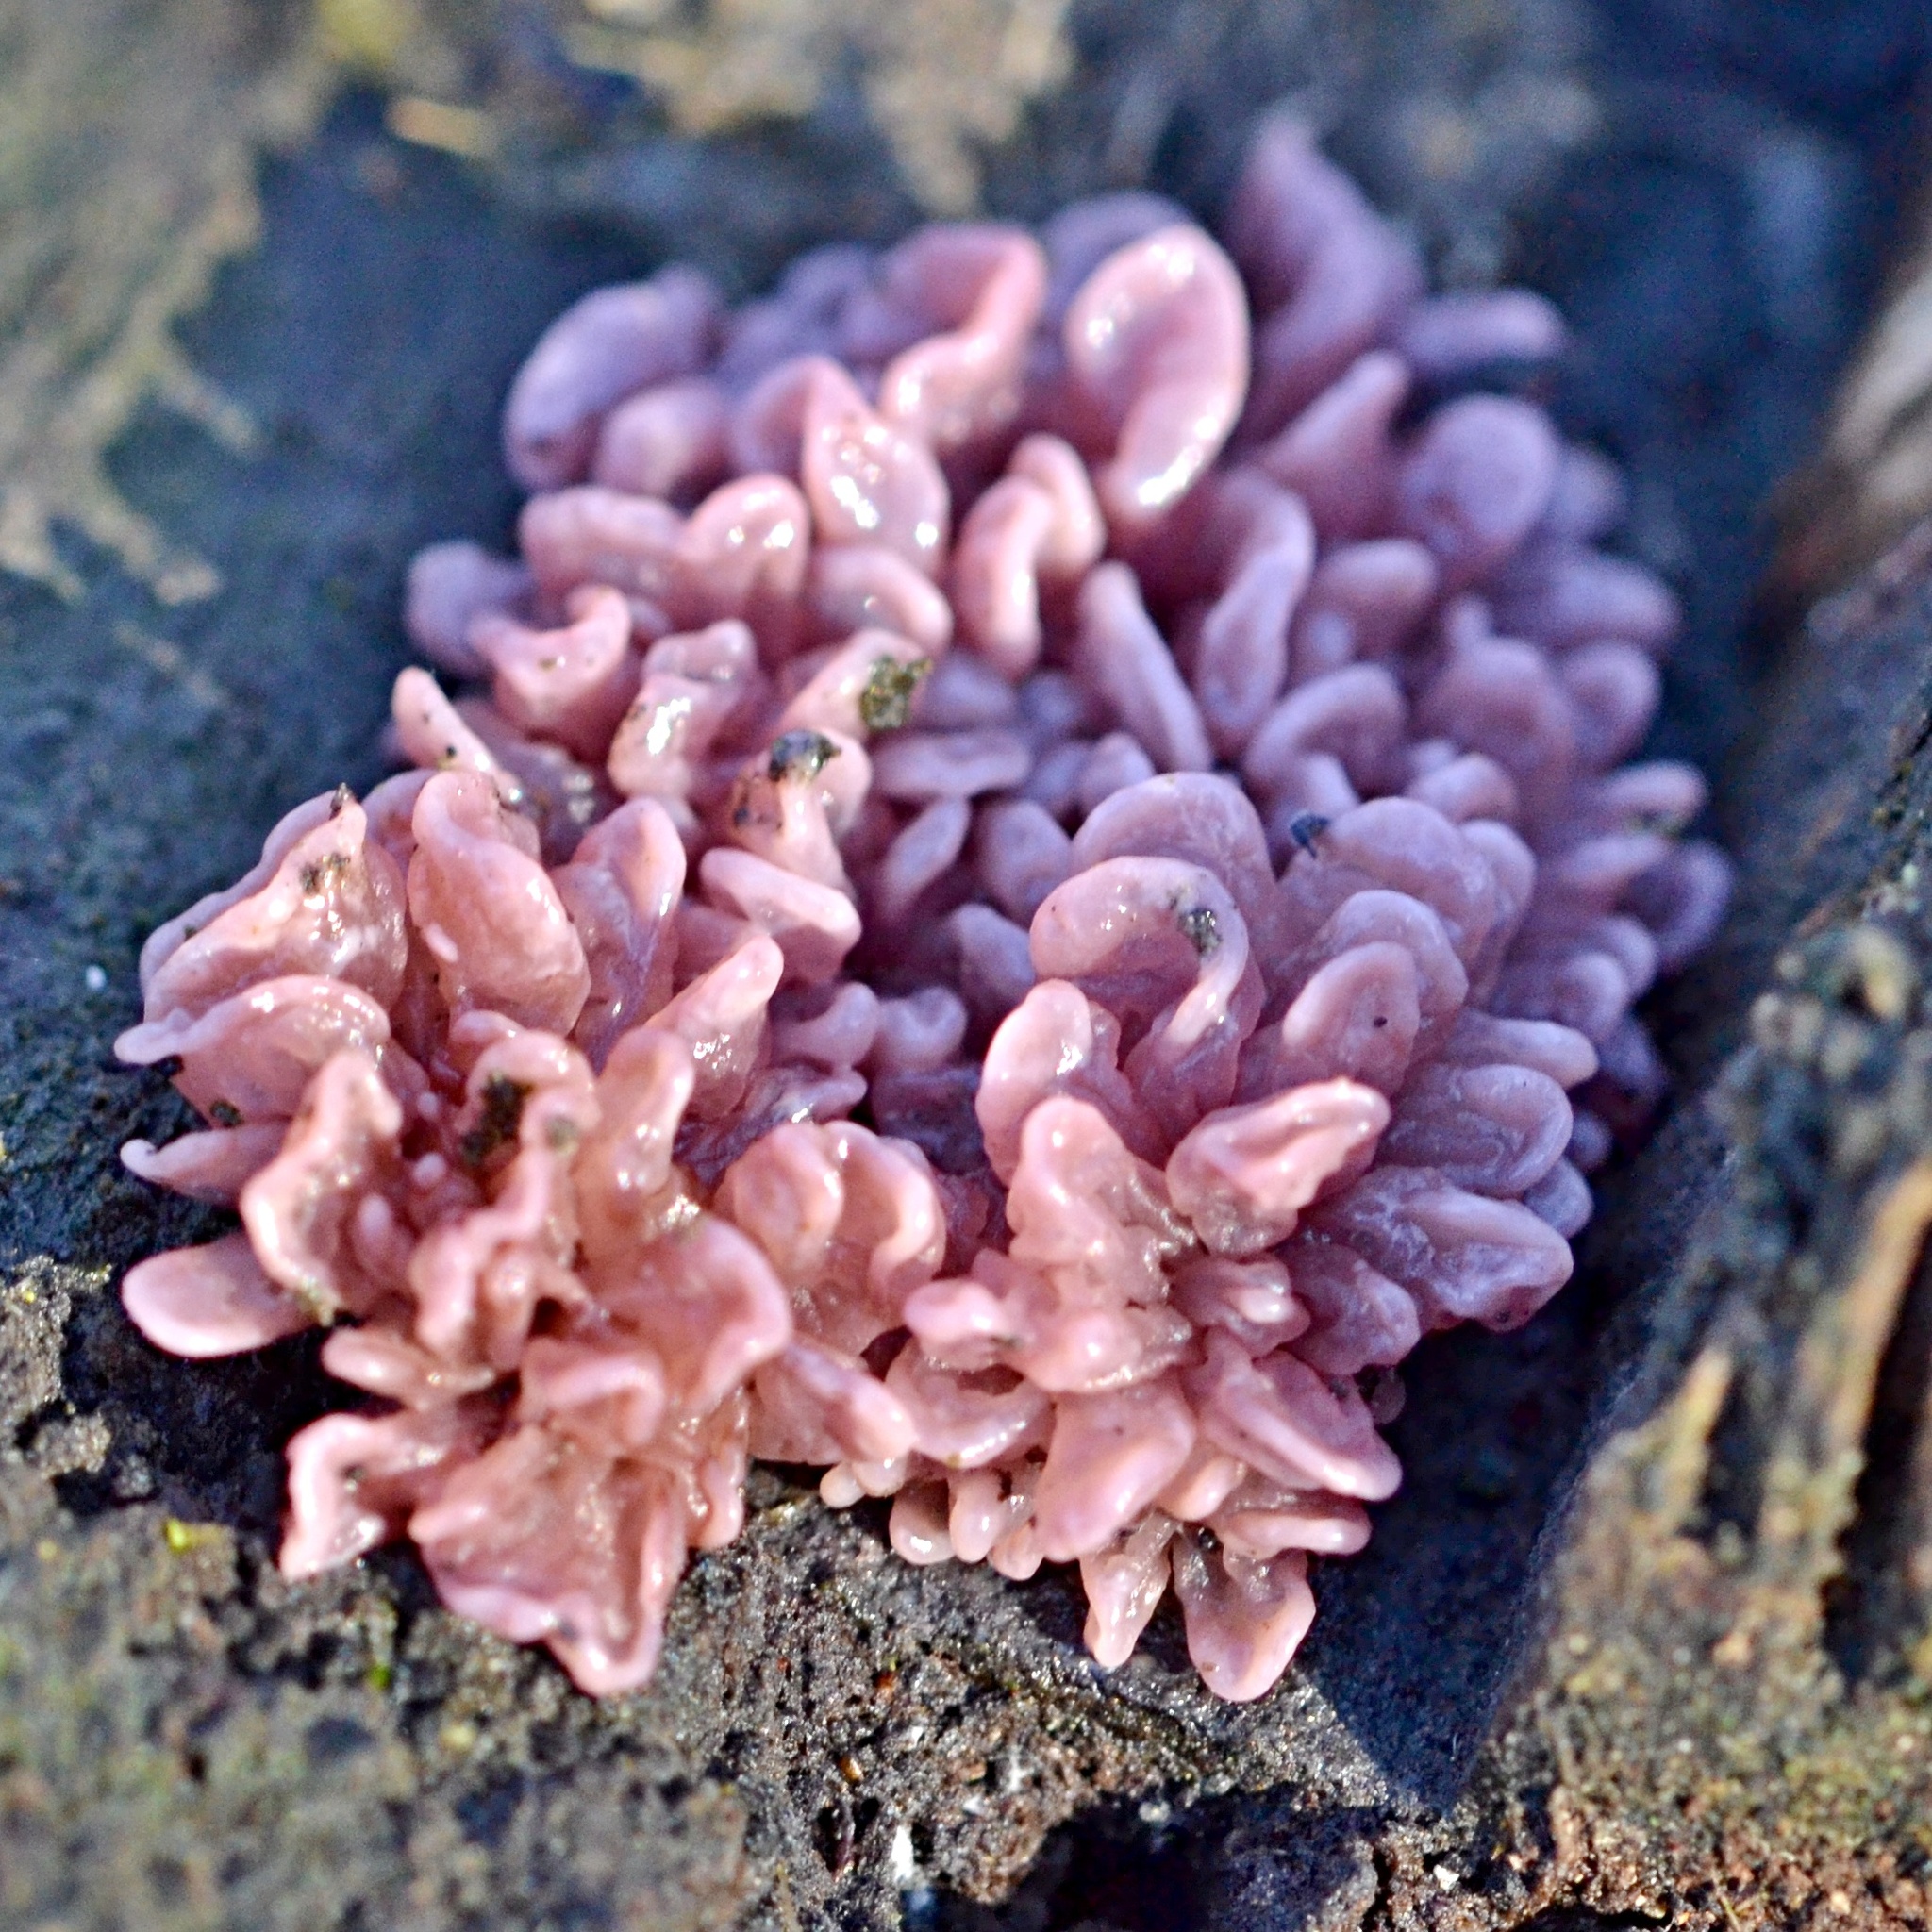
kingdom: Fungi
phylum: Ascomycota
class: Leotiomycetes
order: Helotiales
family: Gelatinodiscaceae
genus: Ascocoryne
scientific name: Ascocoryne sarcoides
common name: Purple jellydisc
